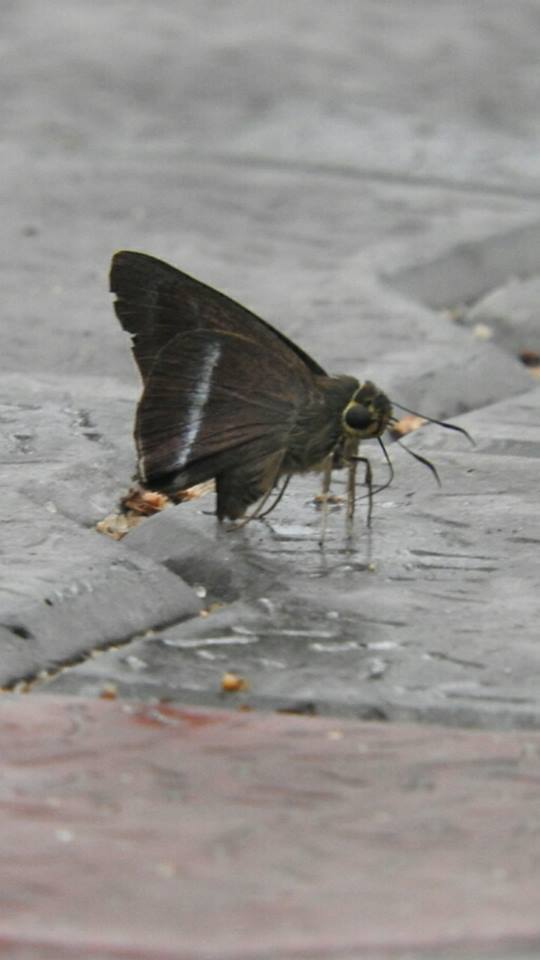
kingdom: Animalia
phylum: Arthropoda
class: Insecta
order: Lepidoptera
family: Hesperiidae
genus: Hasora
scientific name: Hasora chromus
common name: Common banded awl
